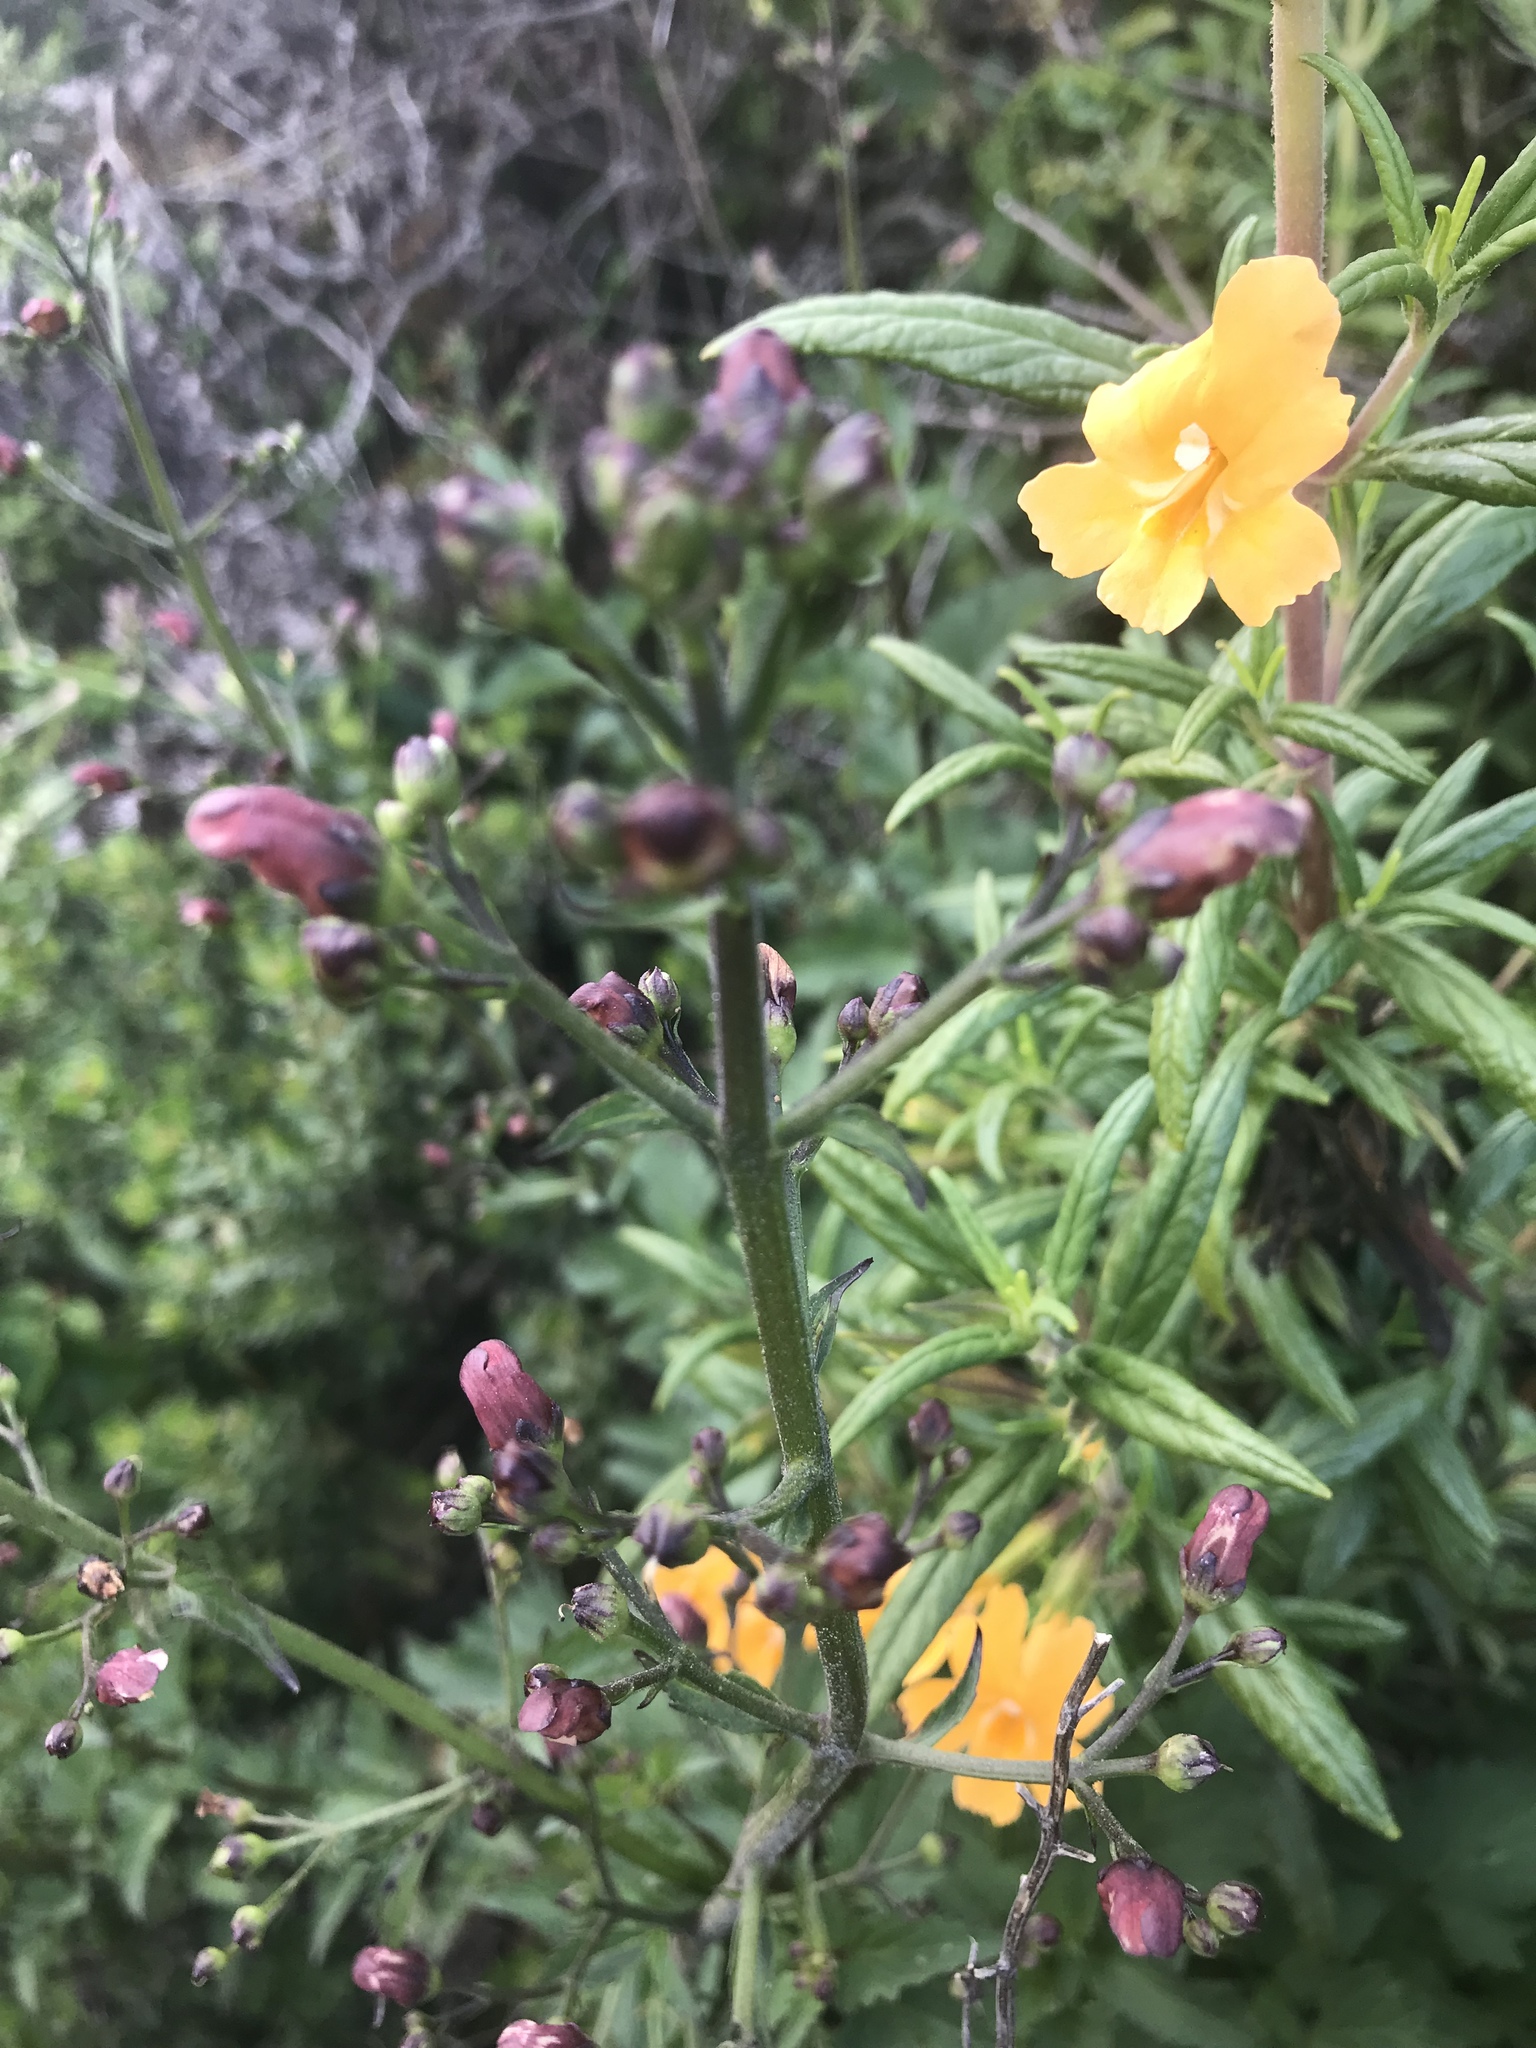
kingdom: Plantae
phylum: Tracheophyta
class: Magnoliopsida
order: Lamiales
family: Phrymaceae
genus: Diplacus
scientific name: Diplacus aurantiacus
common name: Bush monkey-flower
